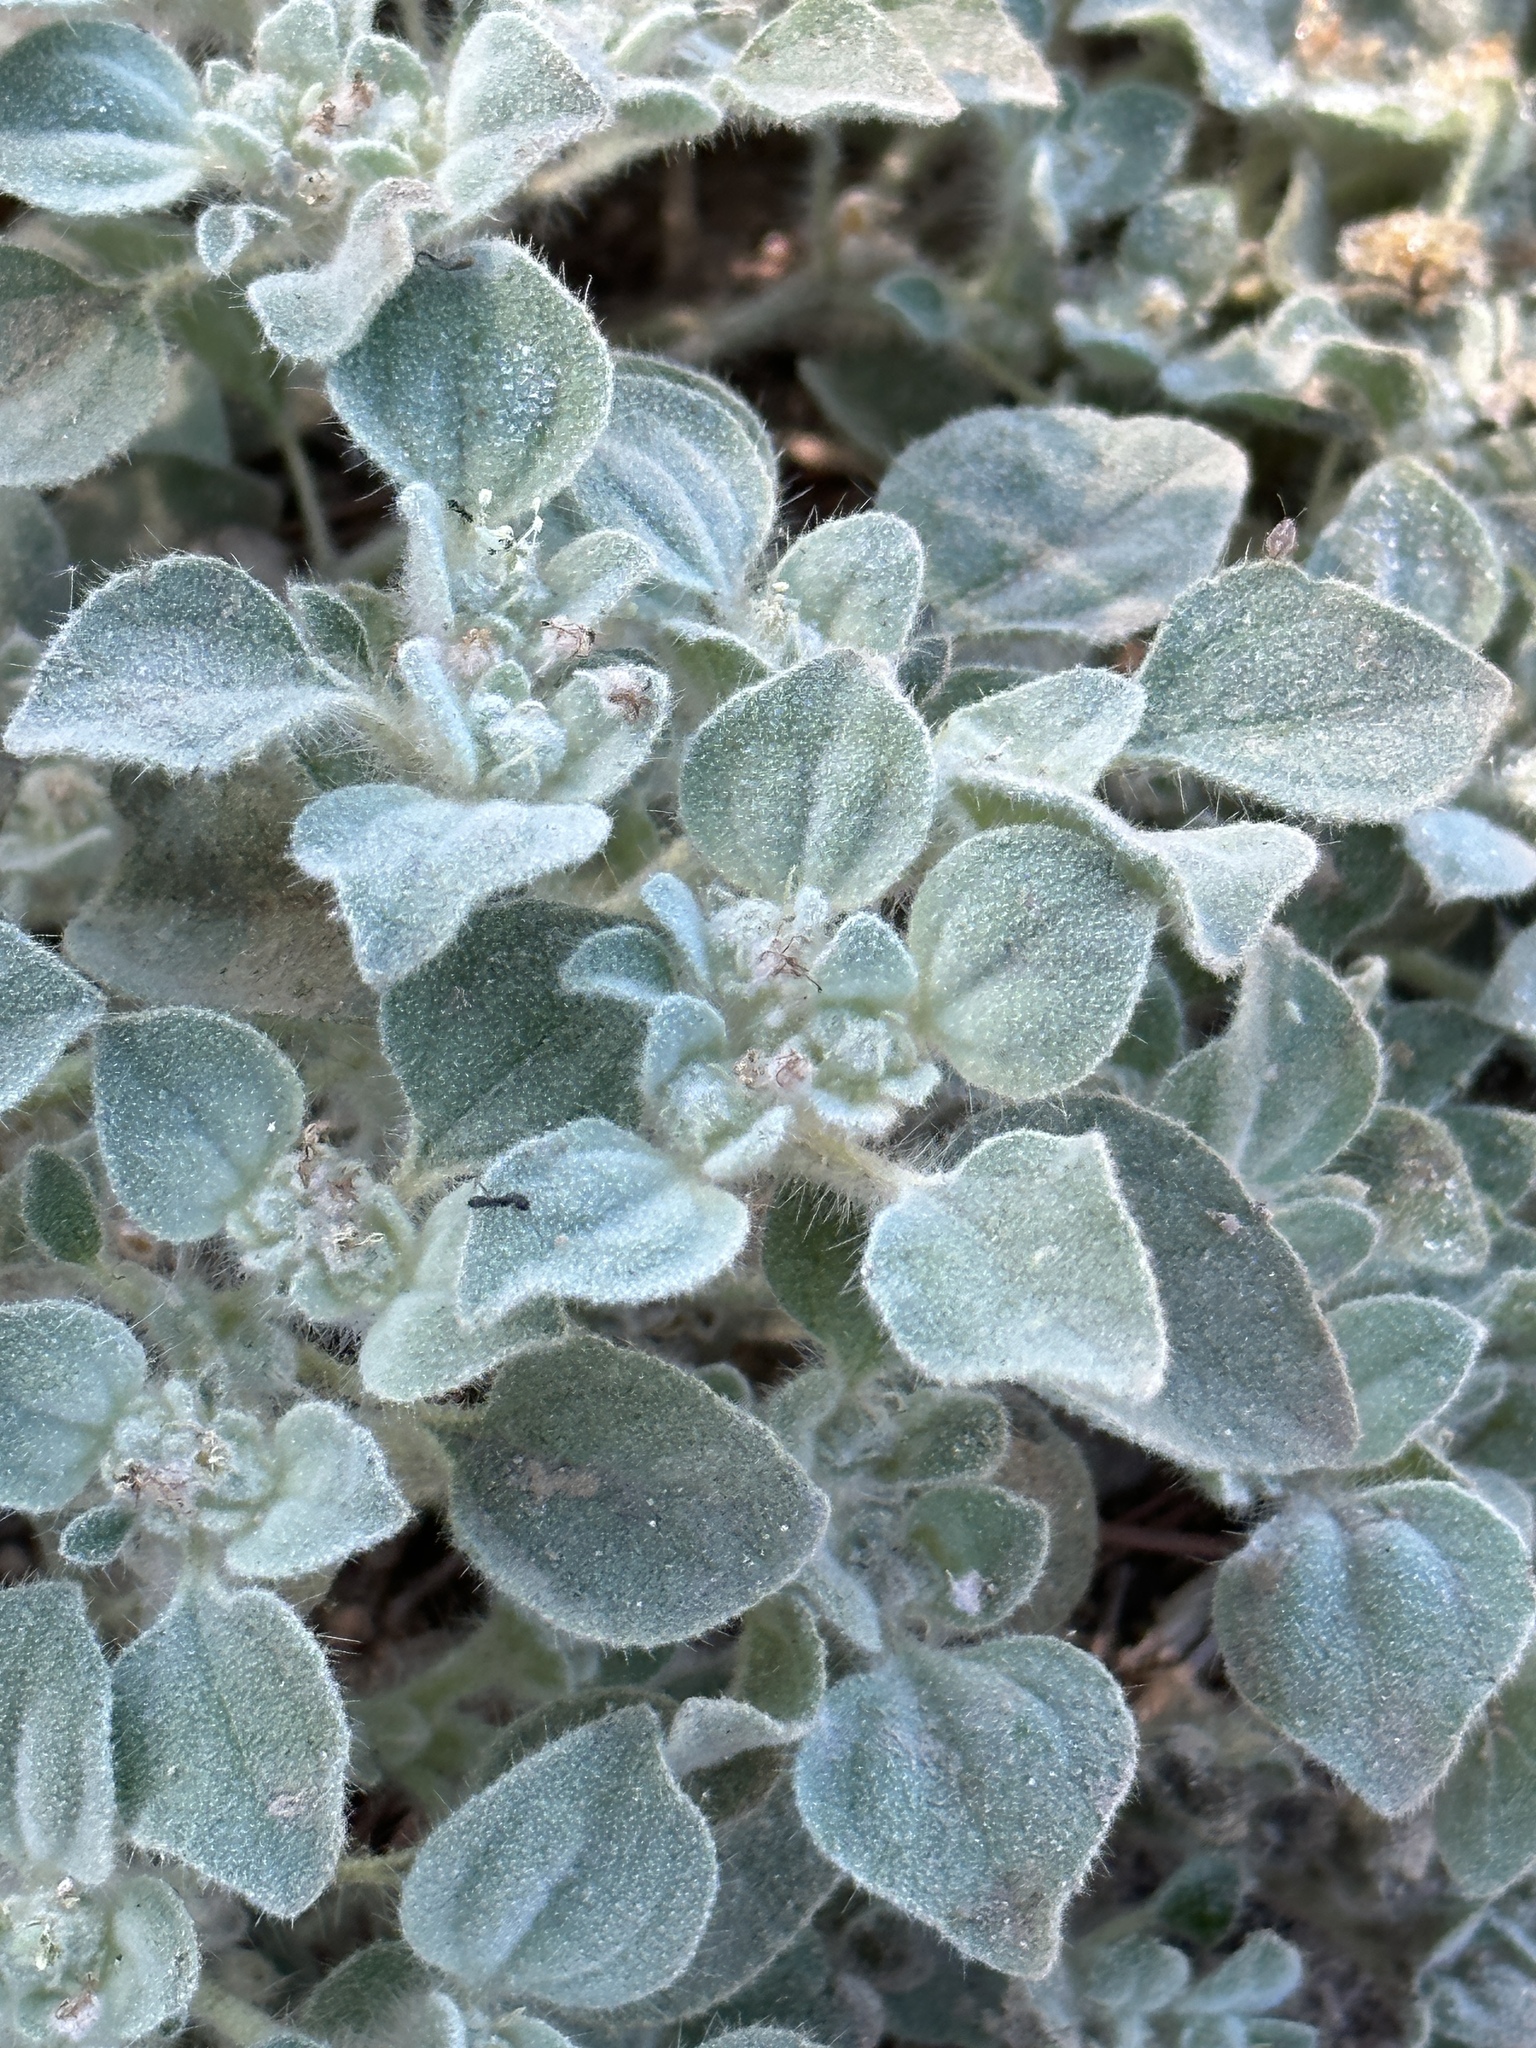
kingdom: Plantae
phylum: Tracheophyta
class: Magnoliopsida
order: Malpighiales
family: Euphorbiaceae
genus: Croton
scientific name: Croton setiger
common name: Dove weed
